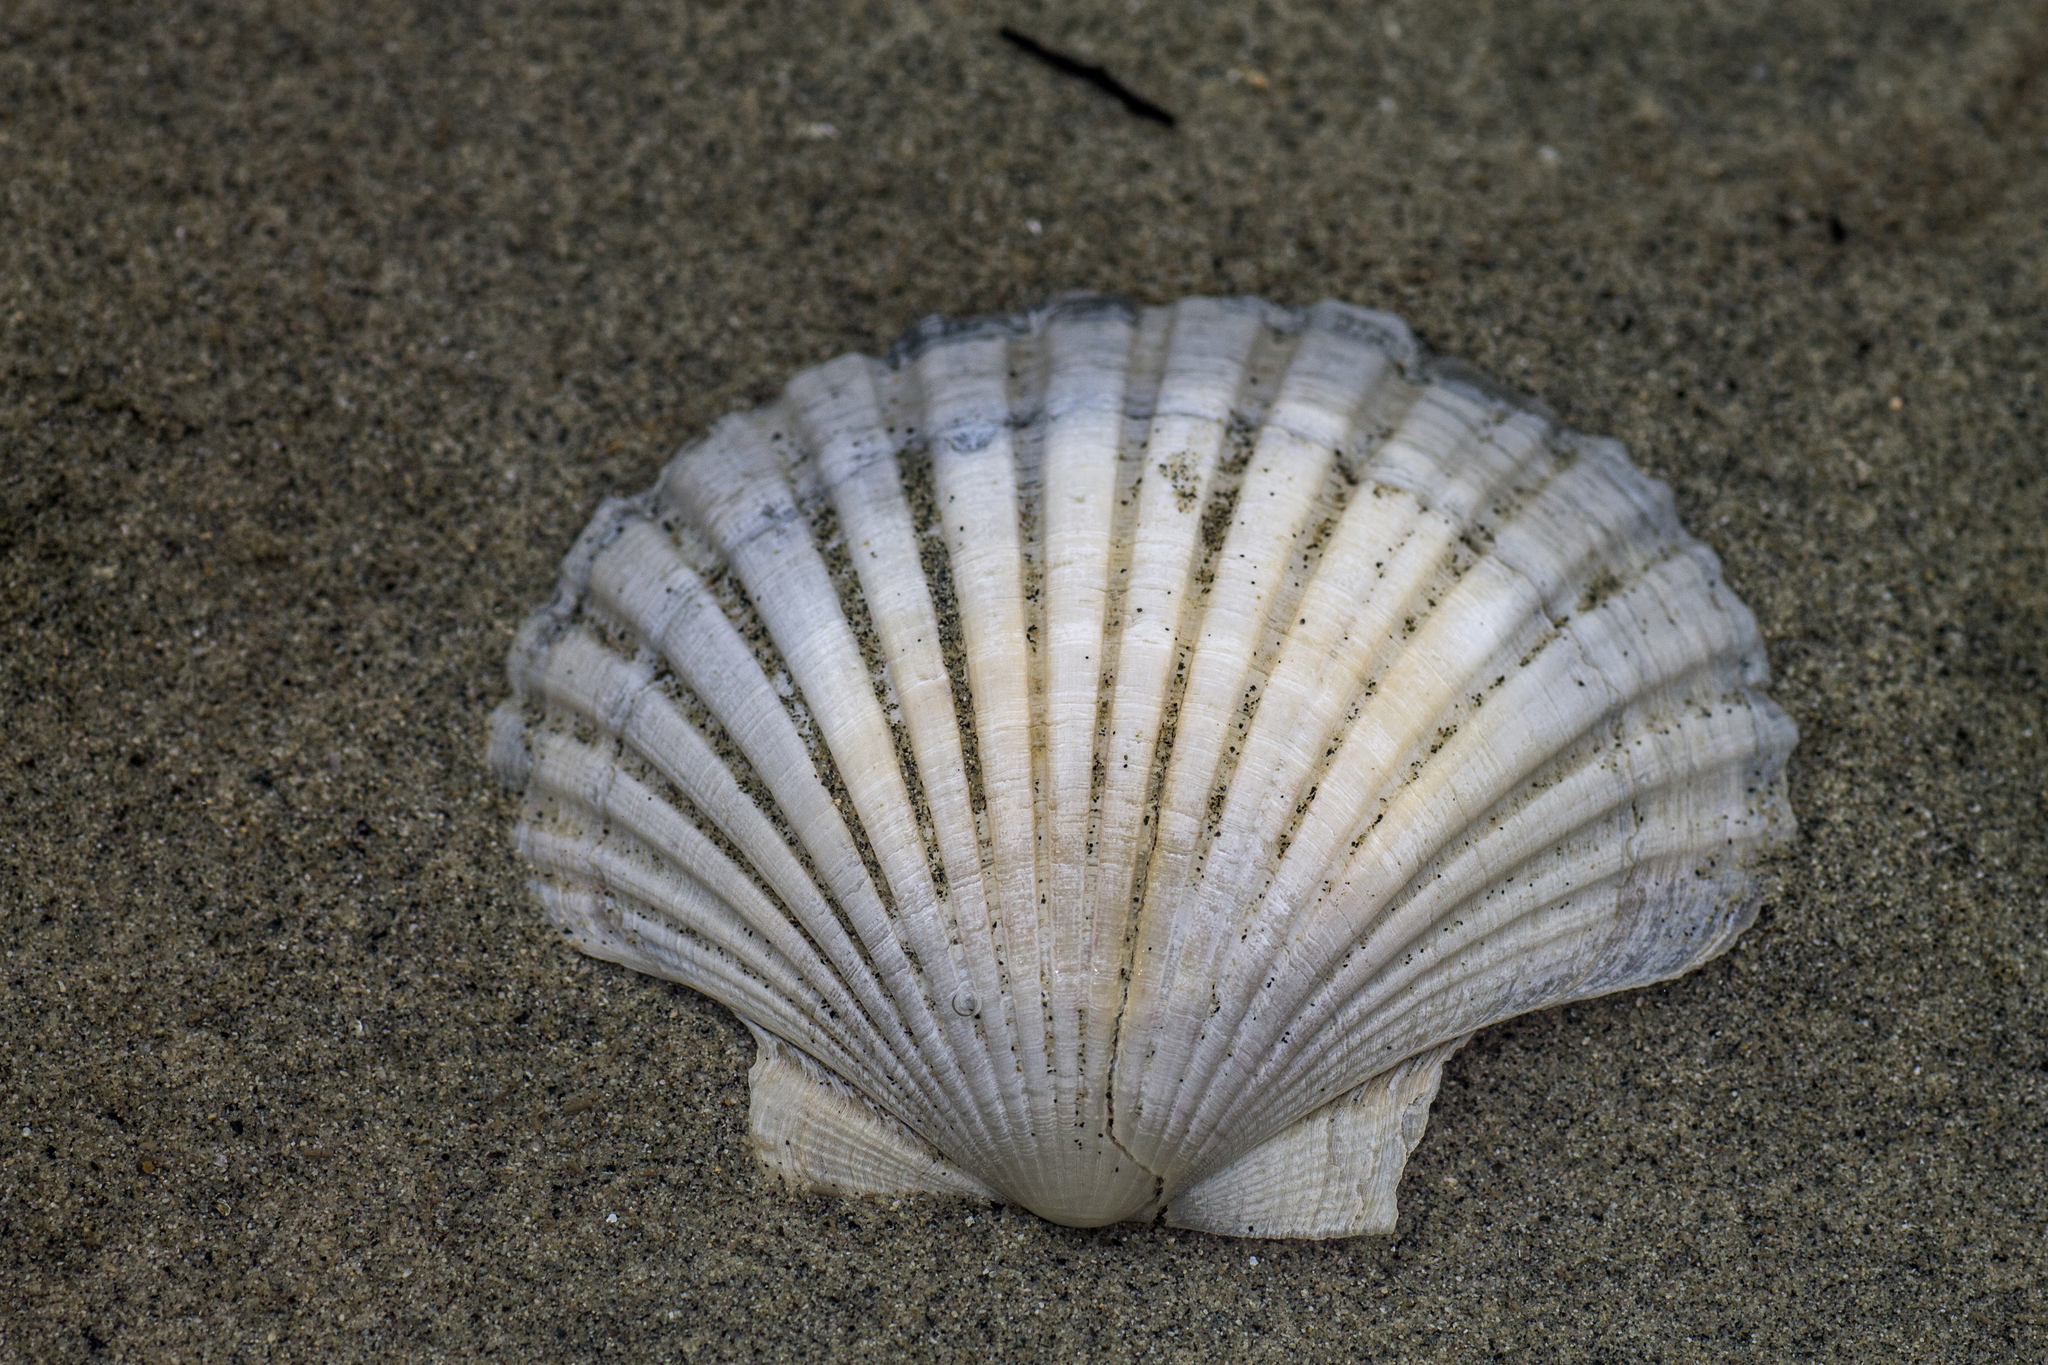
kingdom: Animalia
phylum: Mollusca
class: Bivalvia
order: Pectinida
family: Pectinidae
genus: Pecten
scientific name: Pecten novaezelandiae
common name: New zealand scallop
